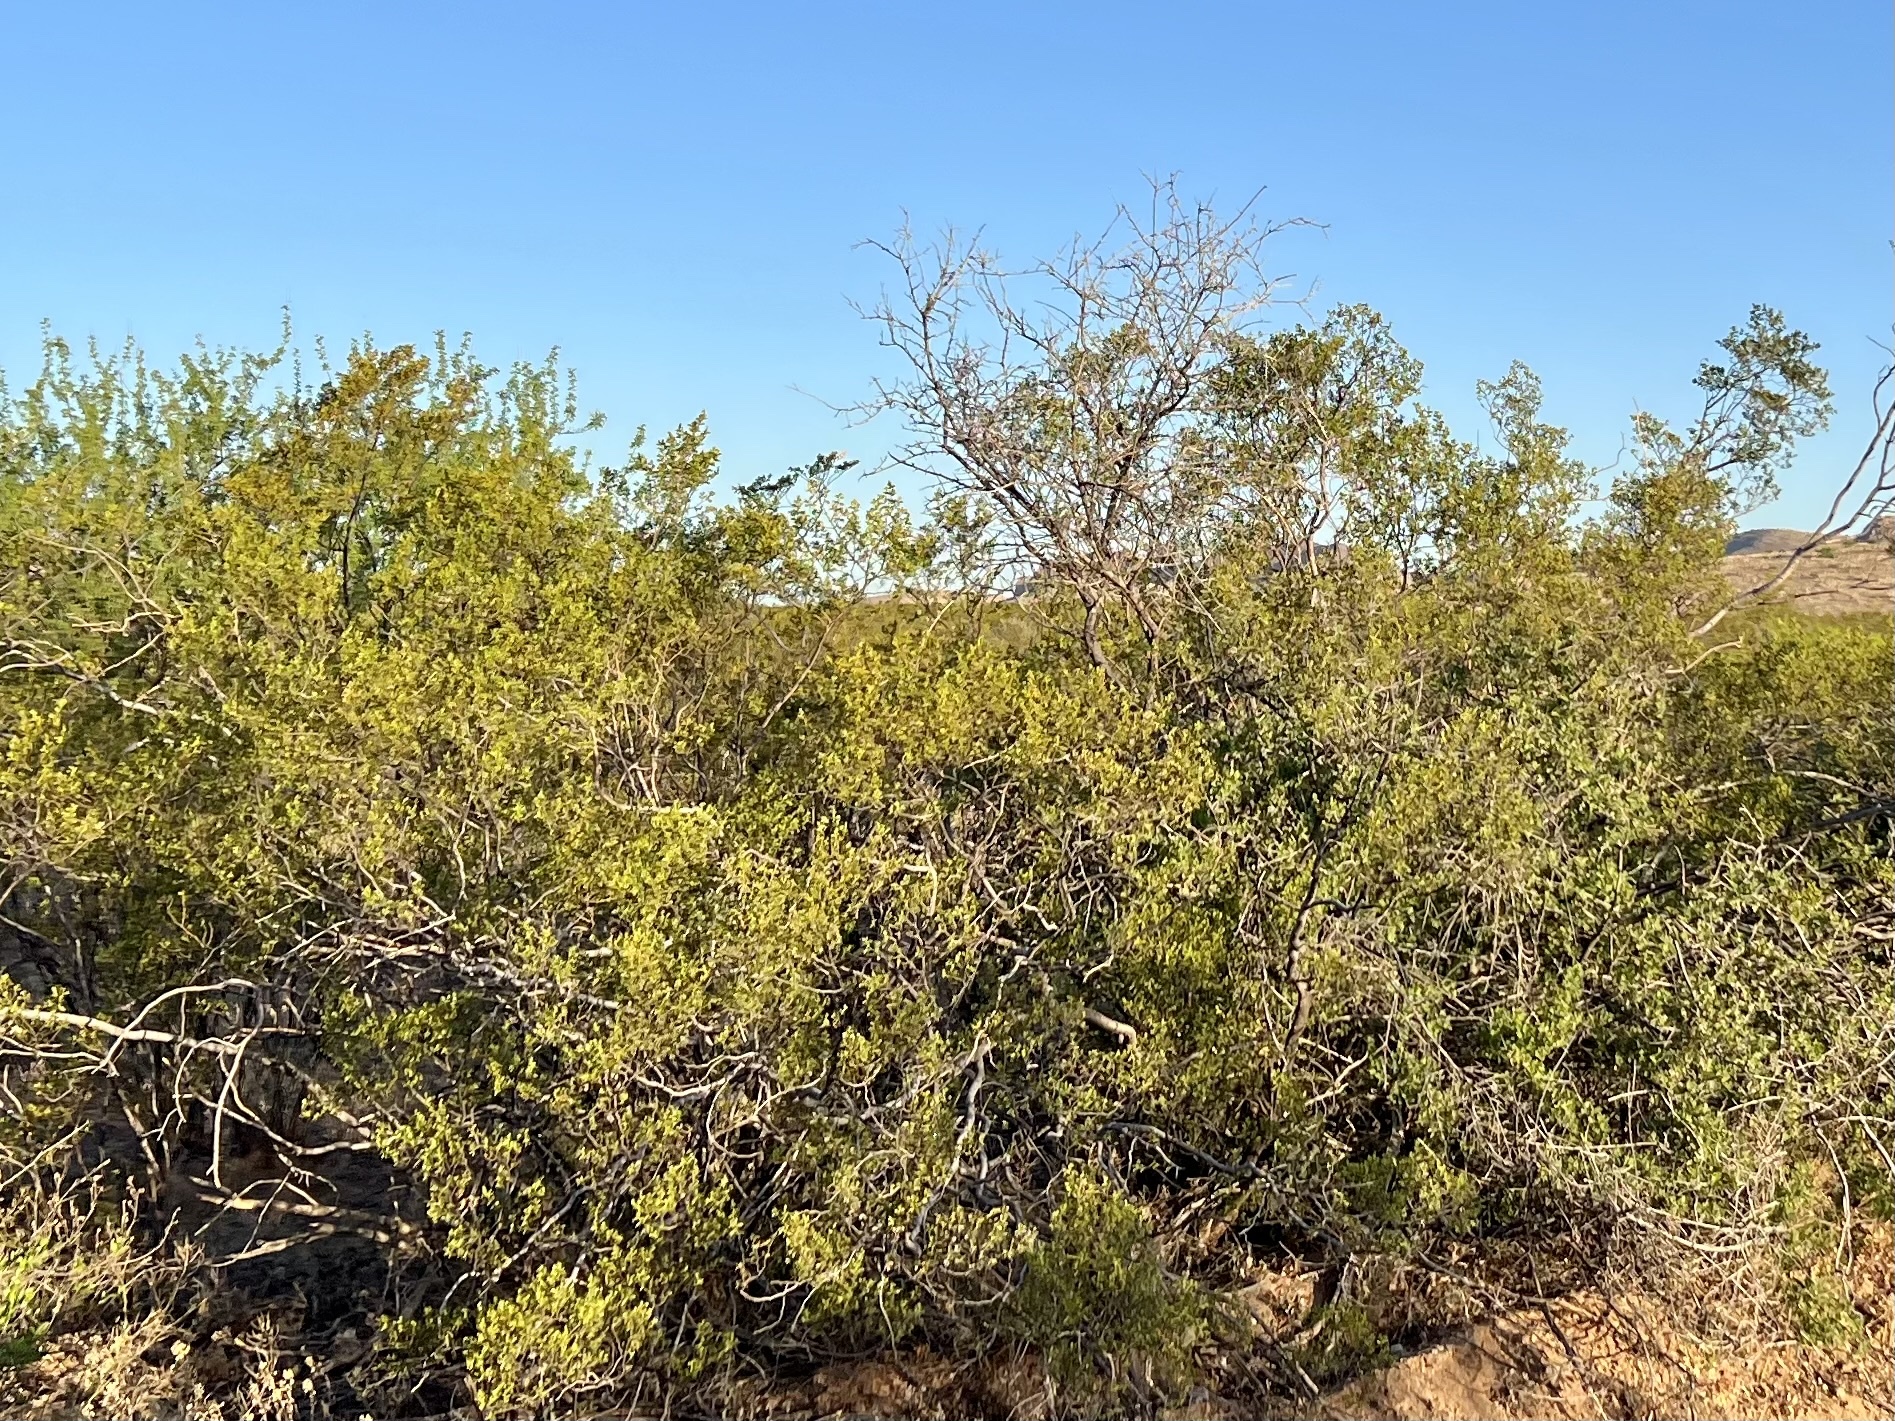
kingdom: Plantae
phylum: Tracheophyta
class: Magnoliopsida
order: Zygophyllales
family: Zygophyllaceae
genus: Larrea
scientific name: Larrea tridentata
